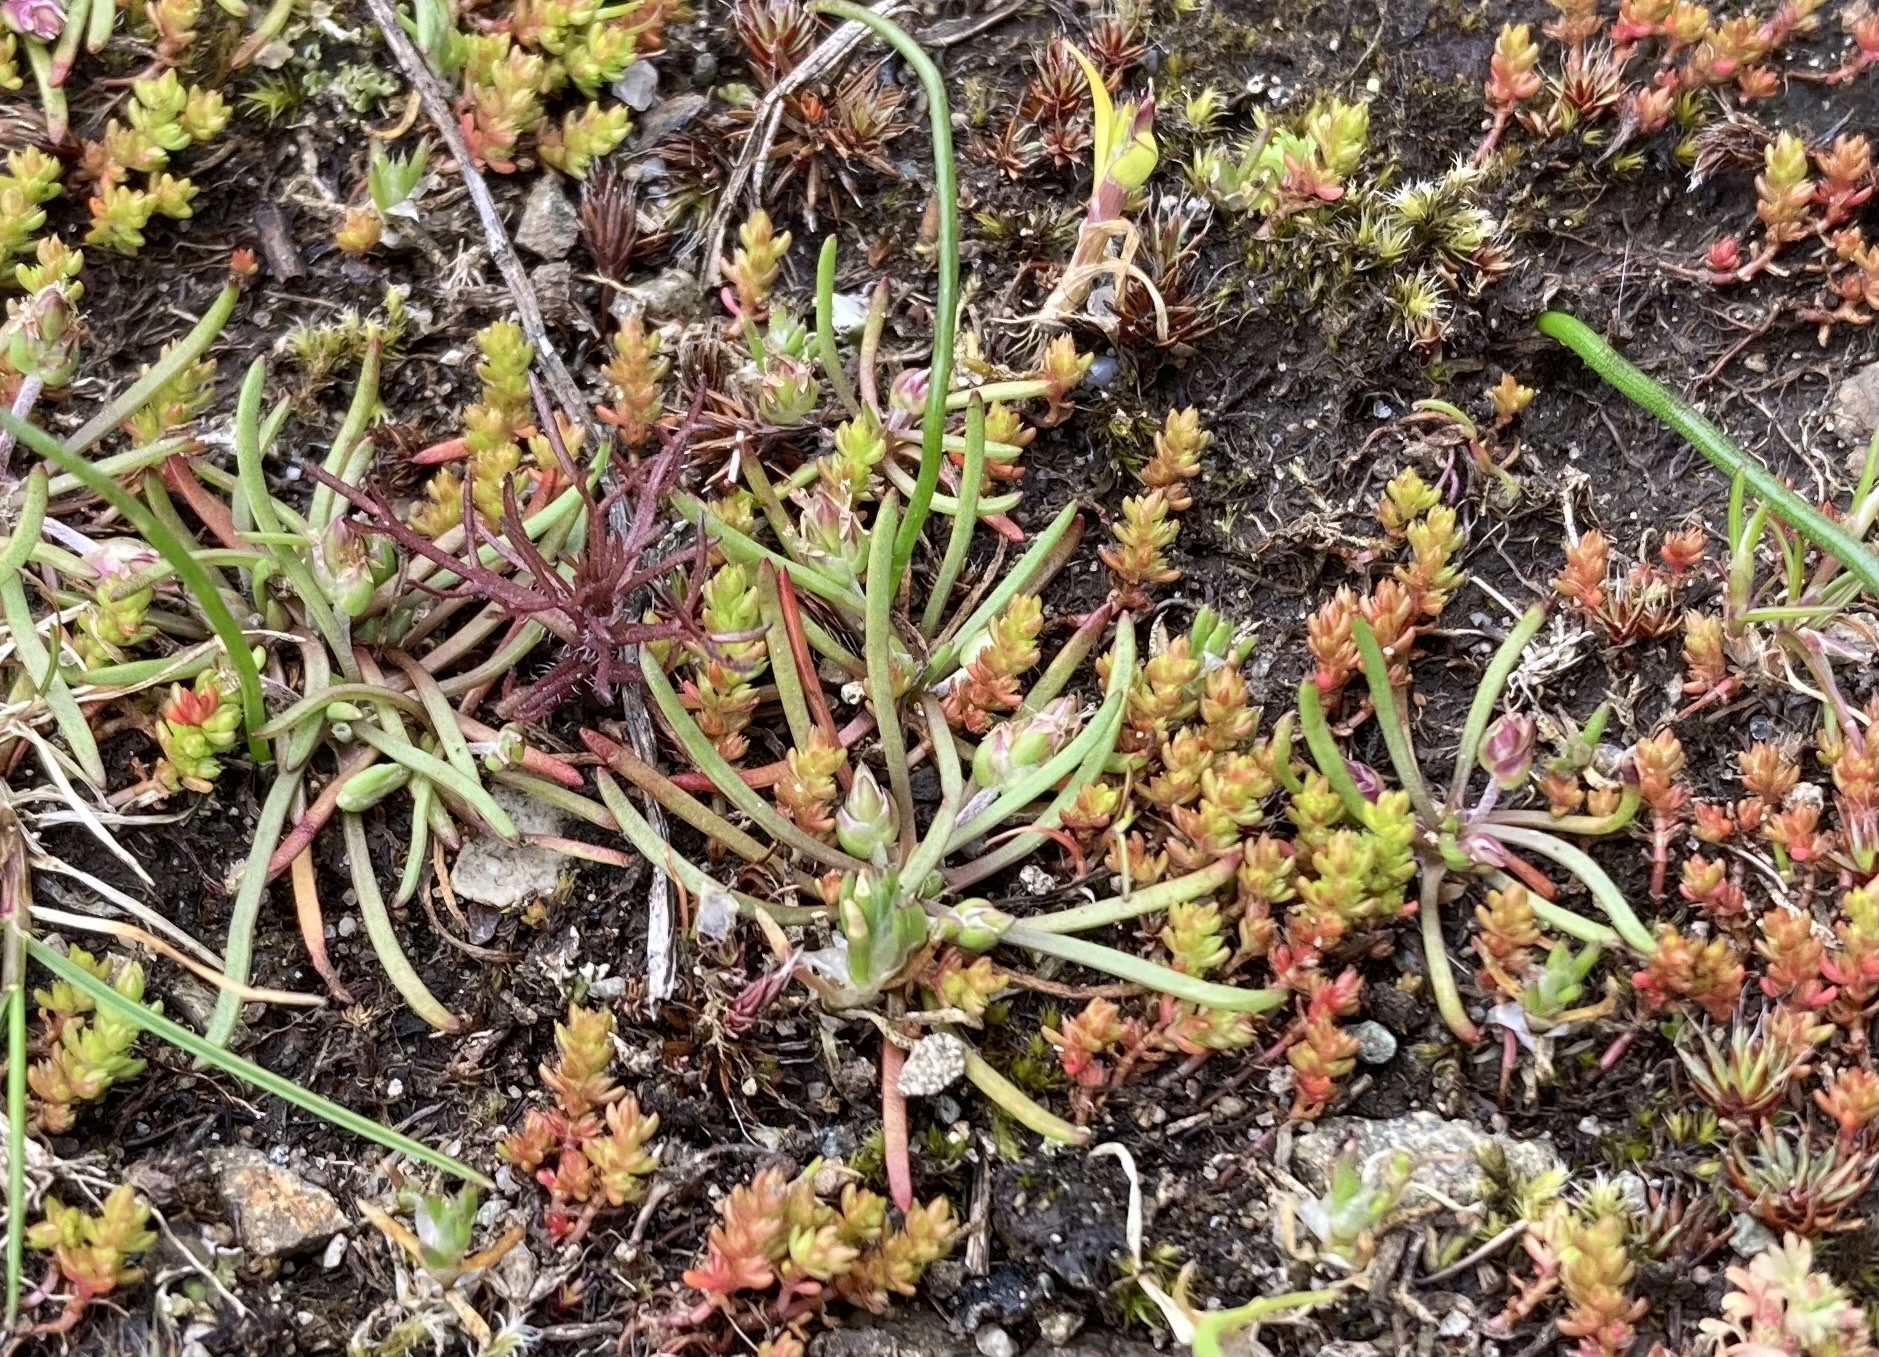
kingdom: Plantae
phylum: Tracheophyta
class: Magnoliopsida
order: Saxifragales
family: Crassulaceae
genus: Crassula
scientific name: Crassula tillaea
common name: Mossy stonecrop
